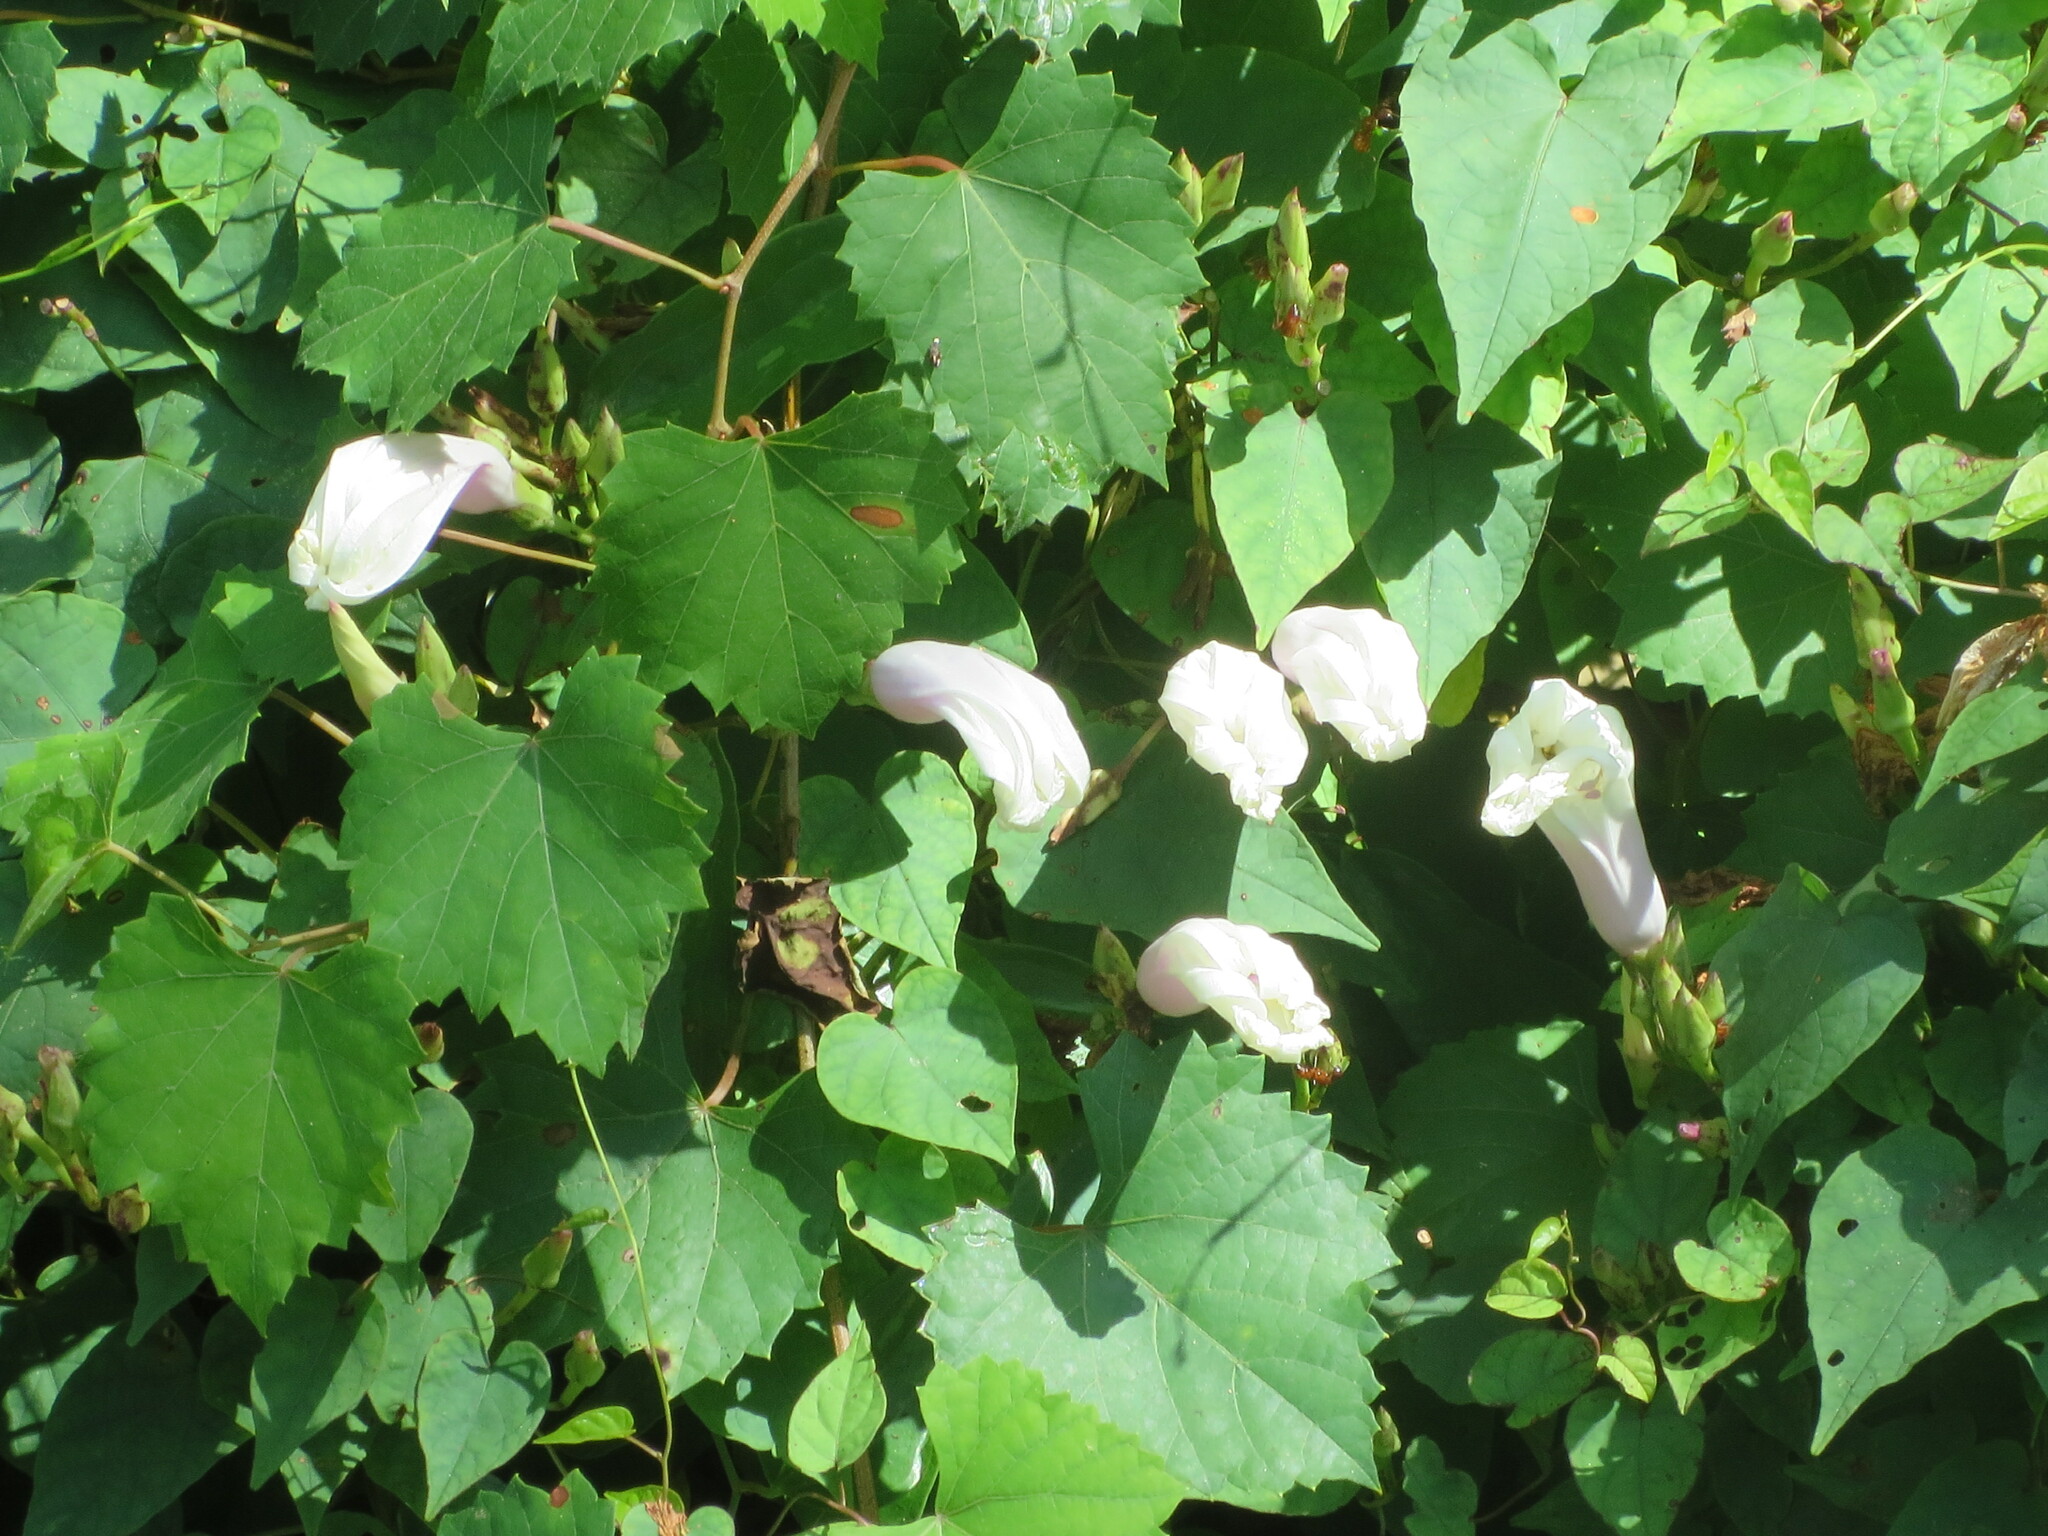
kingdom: Plantae
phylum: Tracheophyta
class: Magnoliopsida
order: Solanales
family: Convolvulaceae
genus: Ipomoea
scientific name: Ipomoea pandurata
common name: Man-of-the-earth
